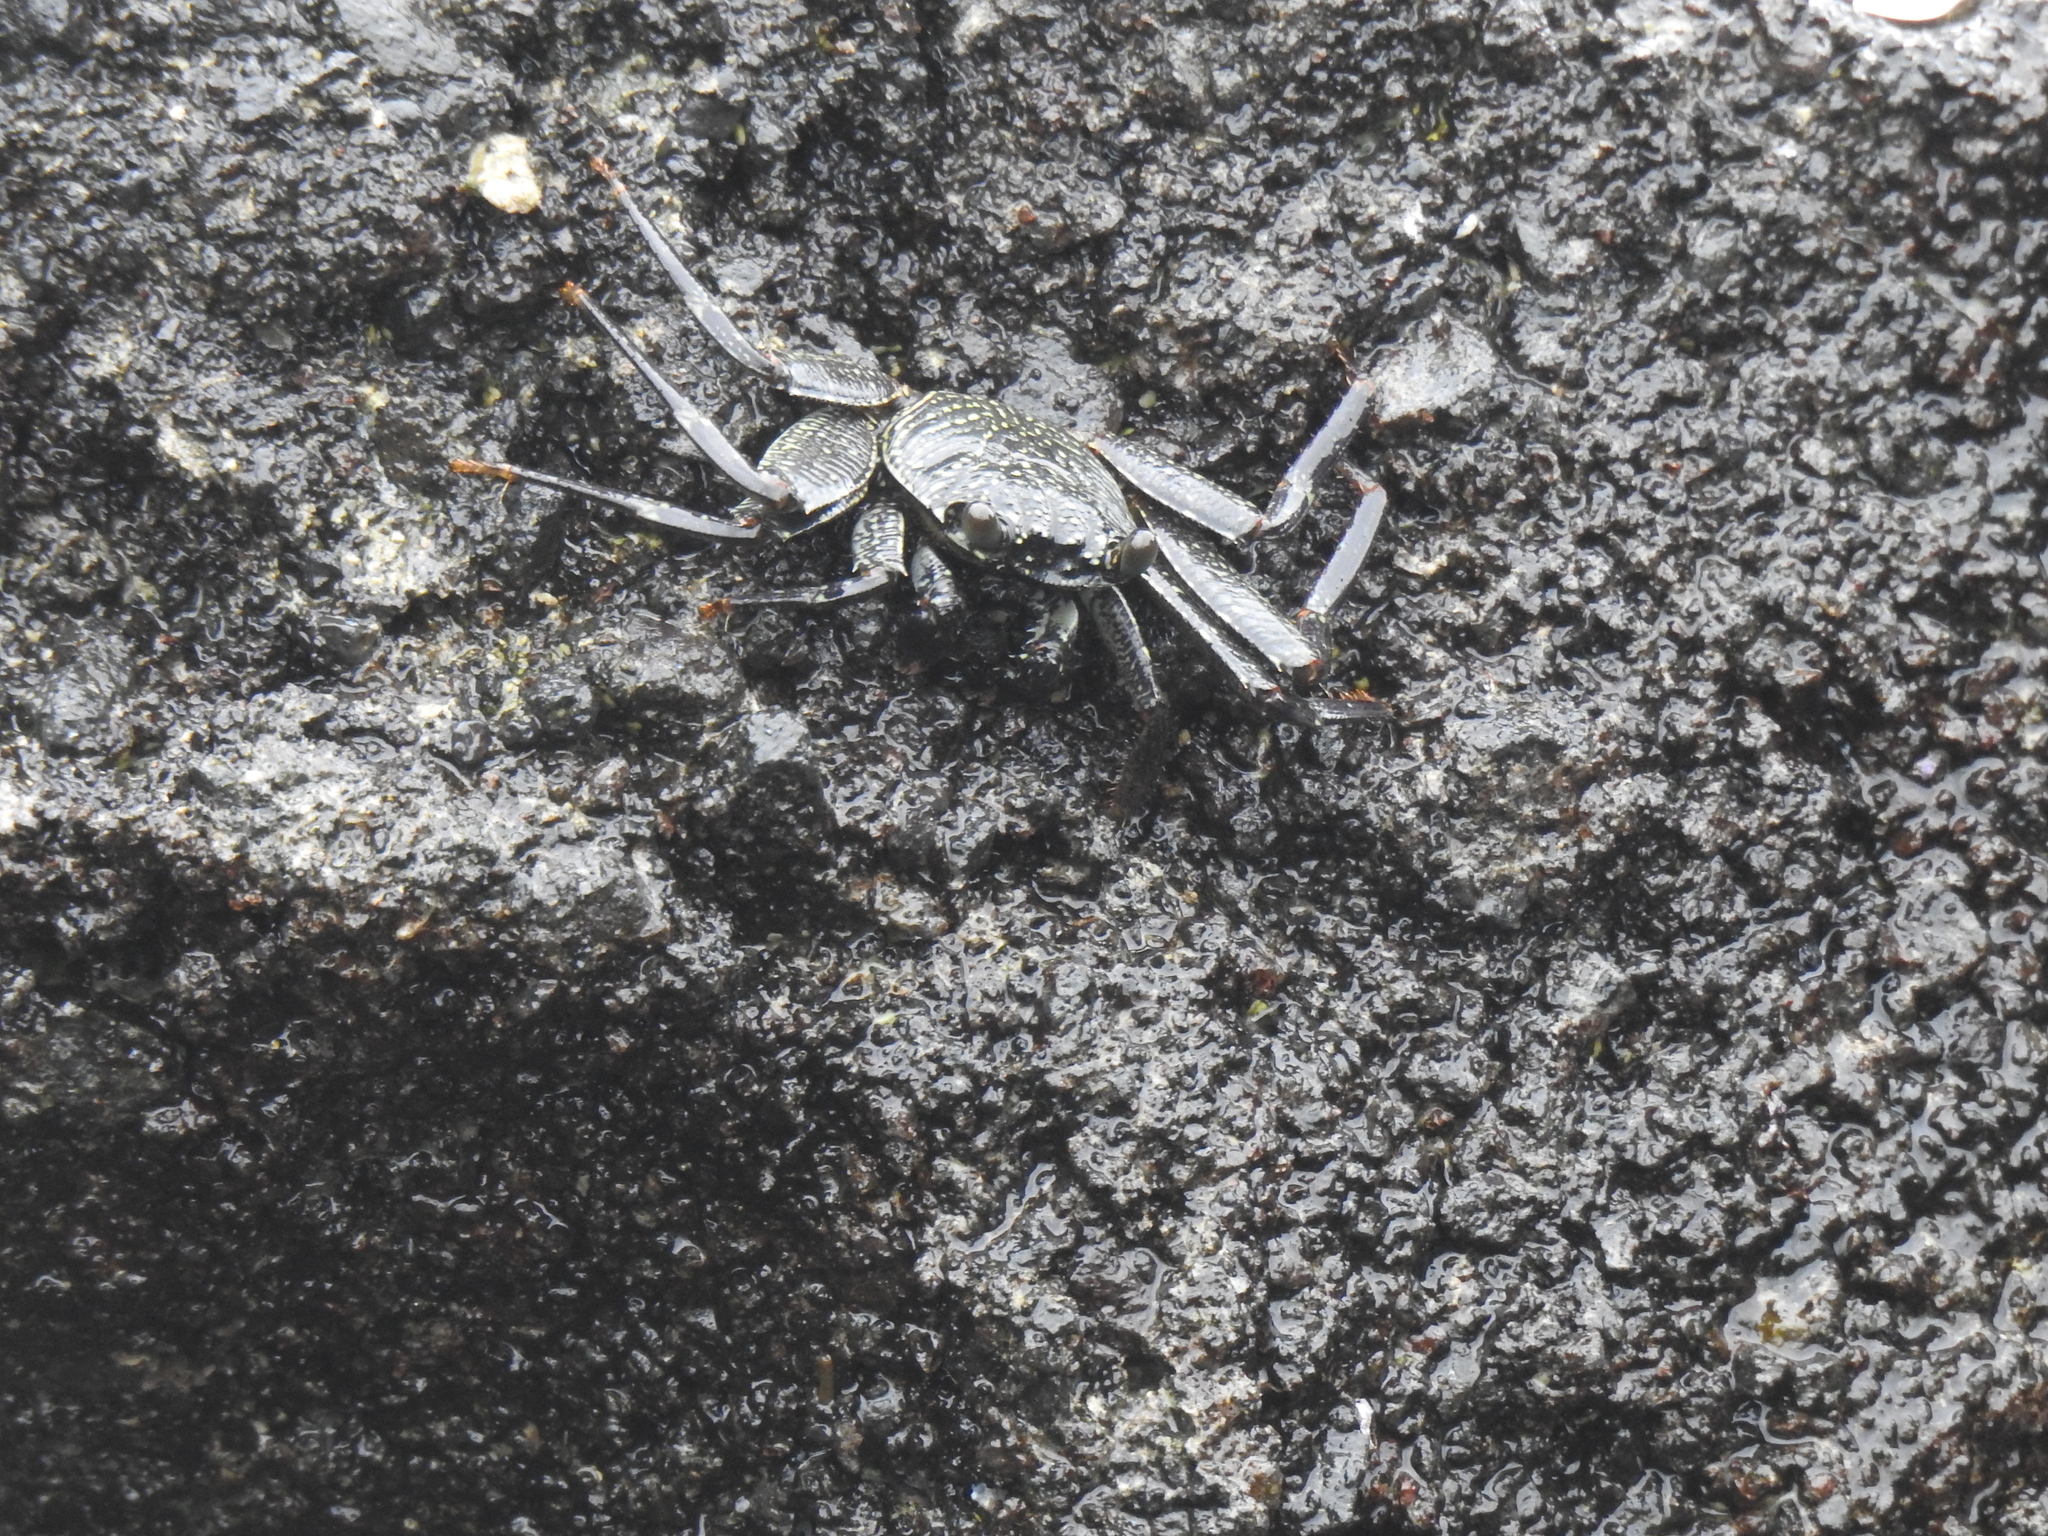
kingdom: Animalia
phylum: Arthropoda
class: Malacostraca
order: Decapoda
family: Grapsidae
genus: Grapsus
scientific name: Grapsus tenuicrustatus
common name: Natal lightfoot crab
